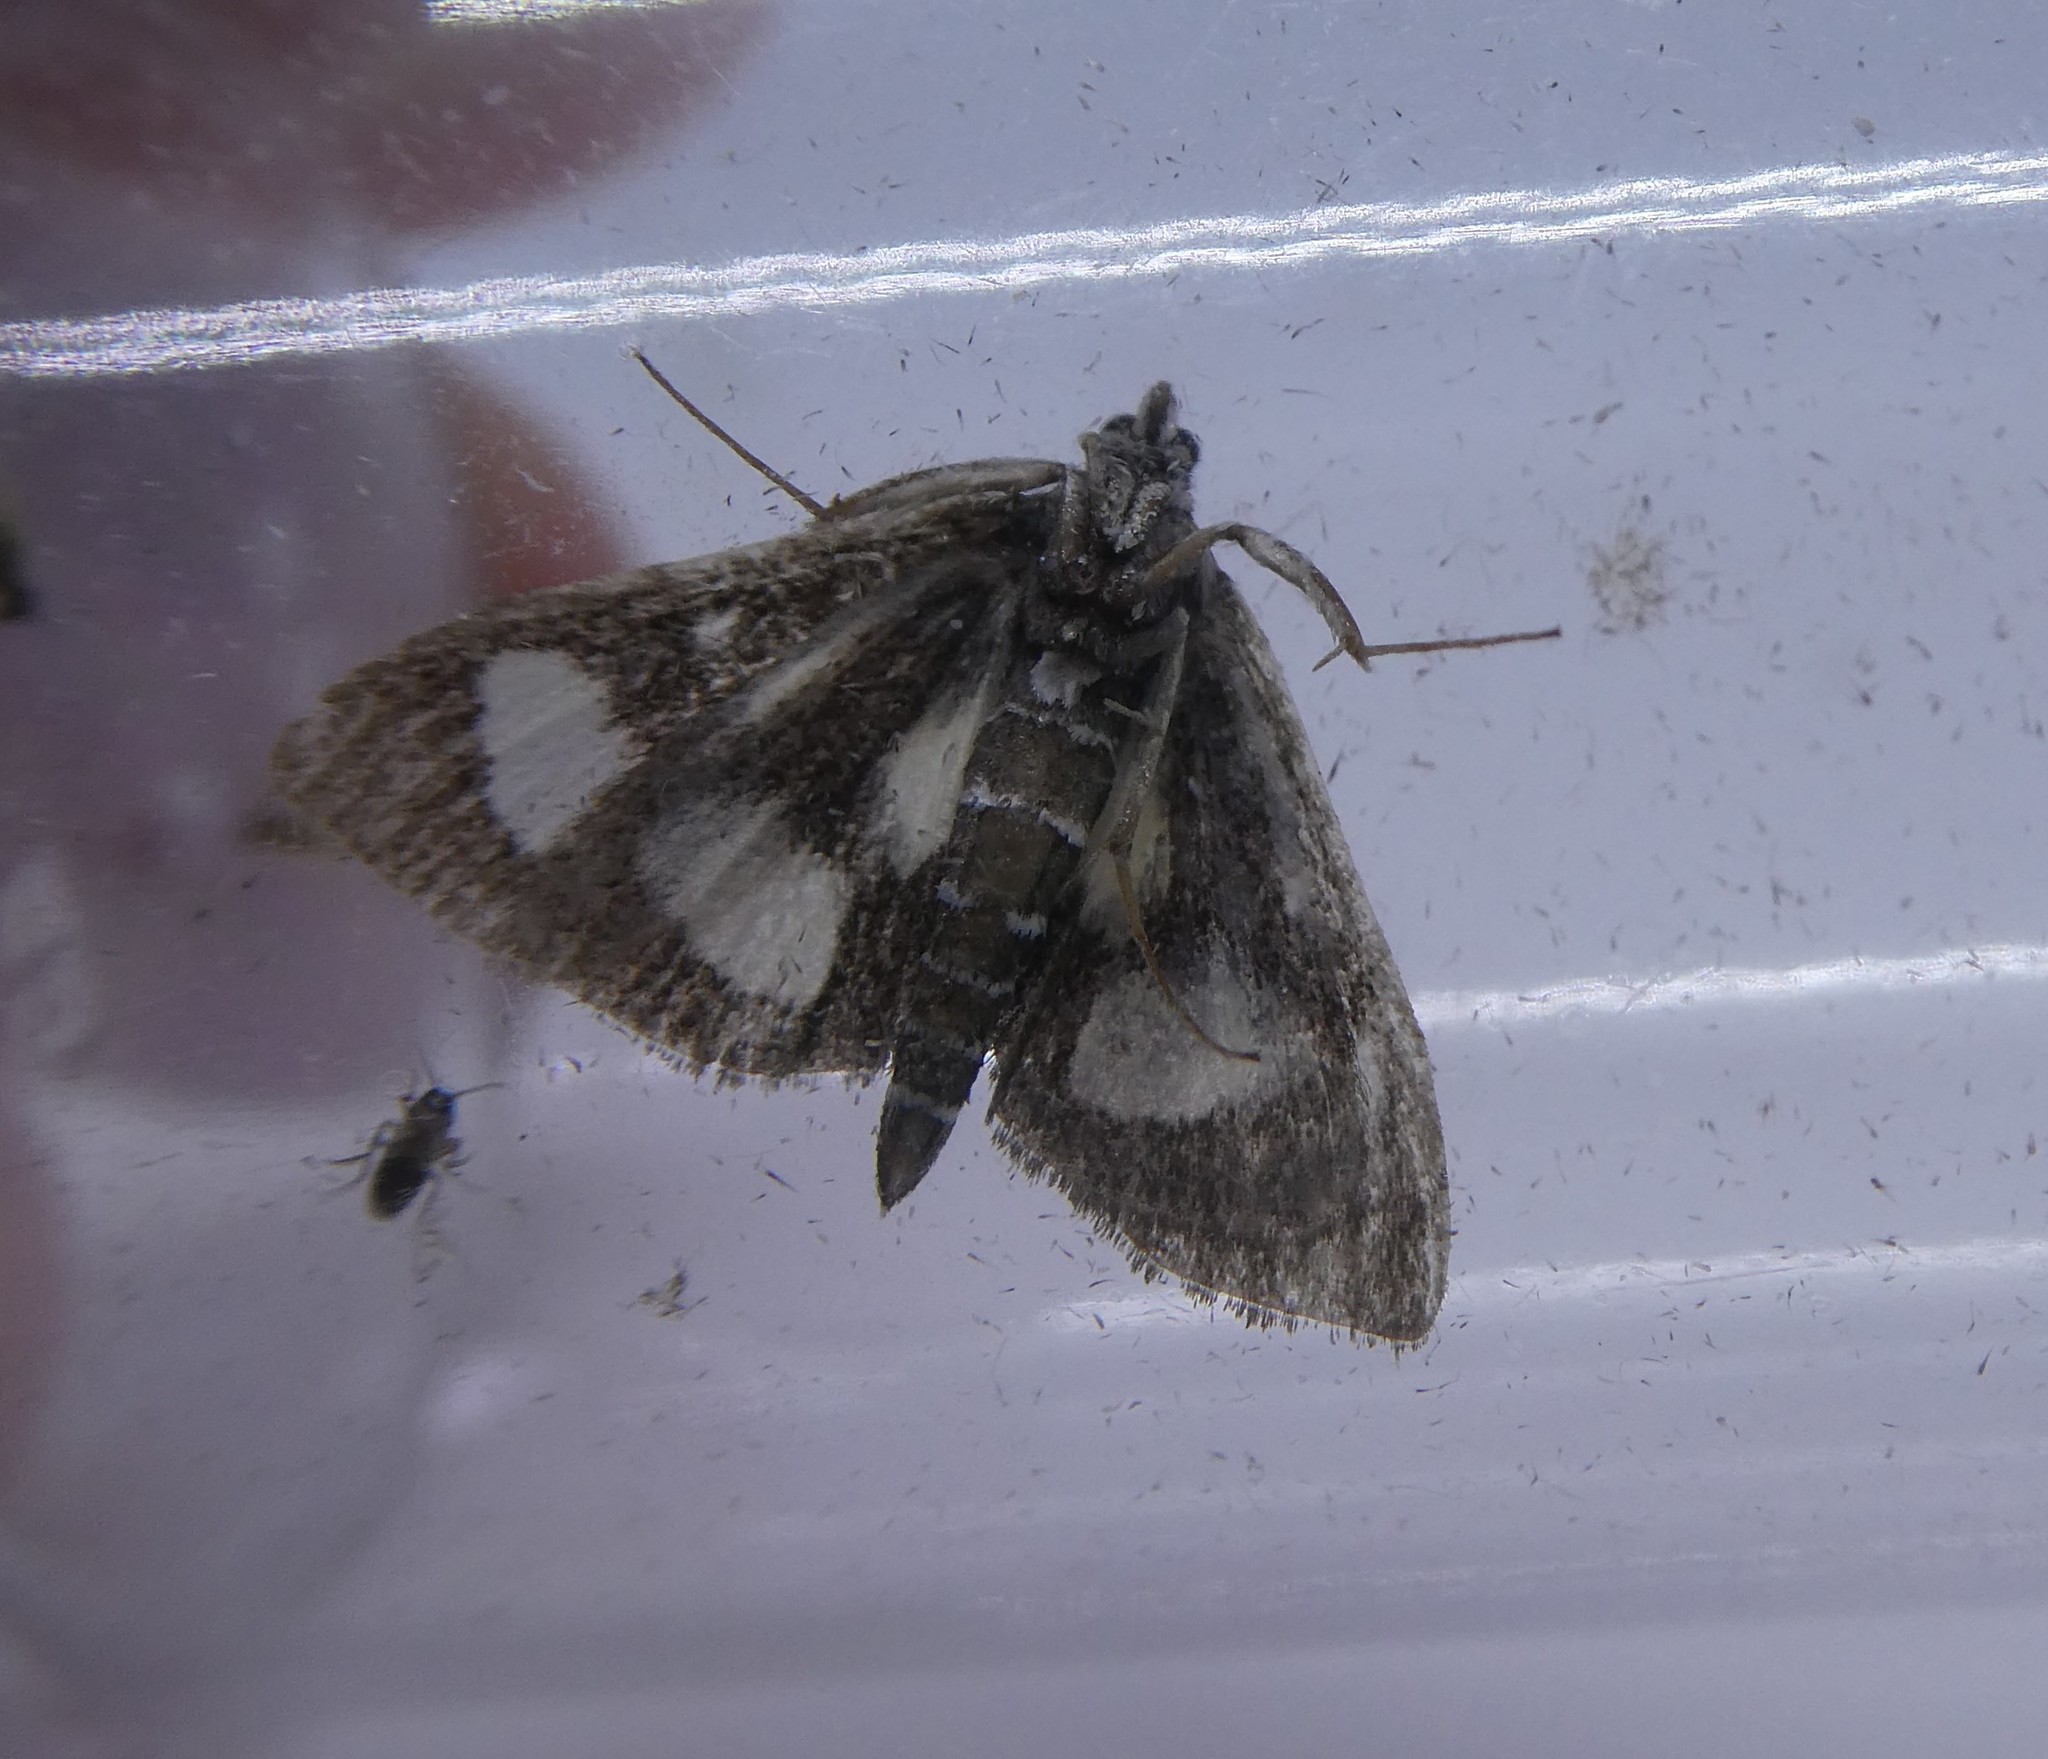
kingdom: Animalia
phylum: Arthropoda
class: Insecta
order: Lepidoptera
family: Crambidae
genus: Anania
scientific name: Anania funebris
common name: White-spotted sable moth
